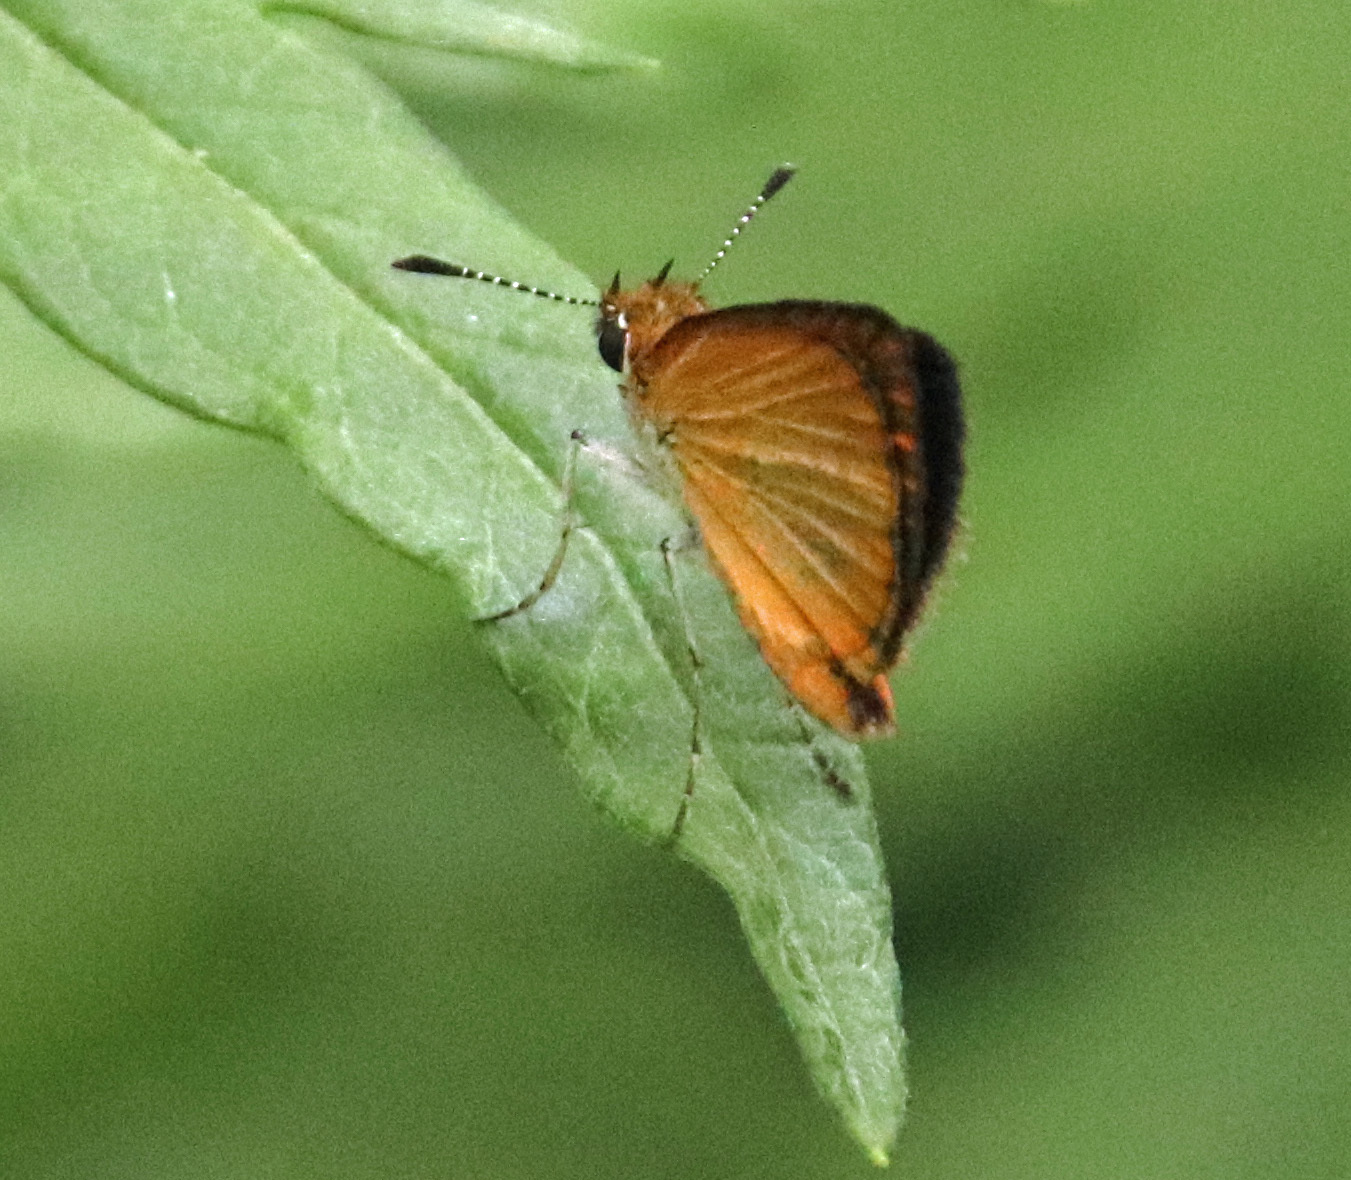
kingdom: Animalia
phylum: Arthropoda
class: Insecta
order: Lepidoptera
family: Hesperiidae
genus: Ancyloxypha
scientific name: Ancyloxypha numitor
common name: Least skipper
